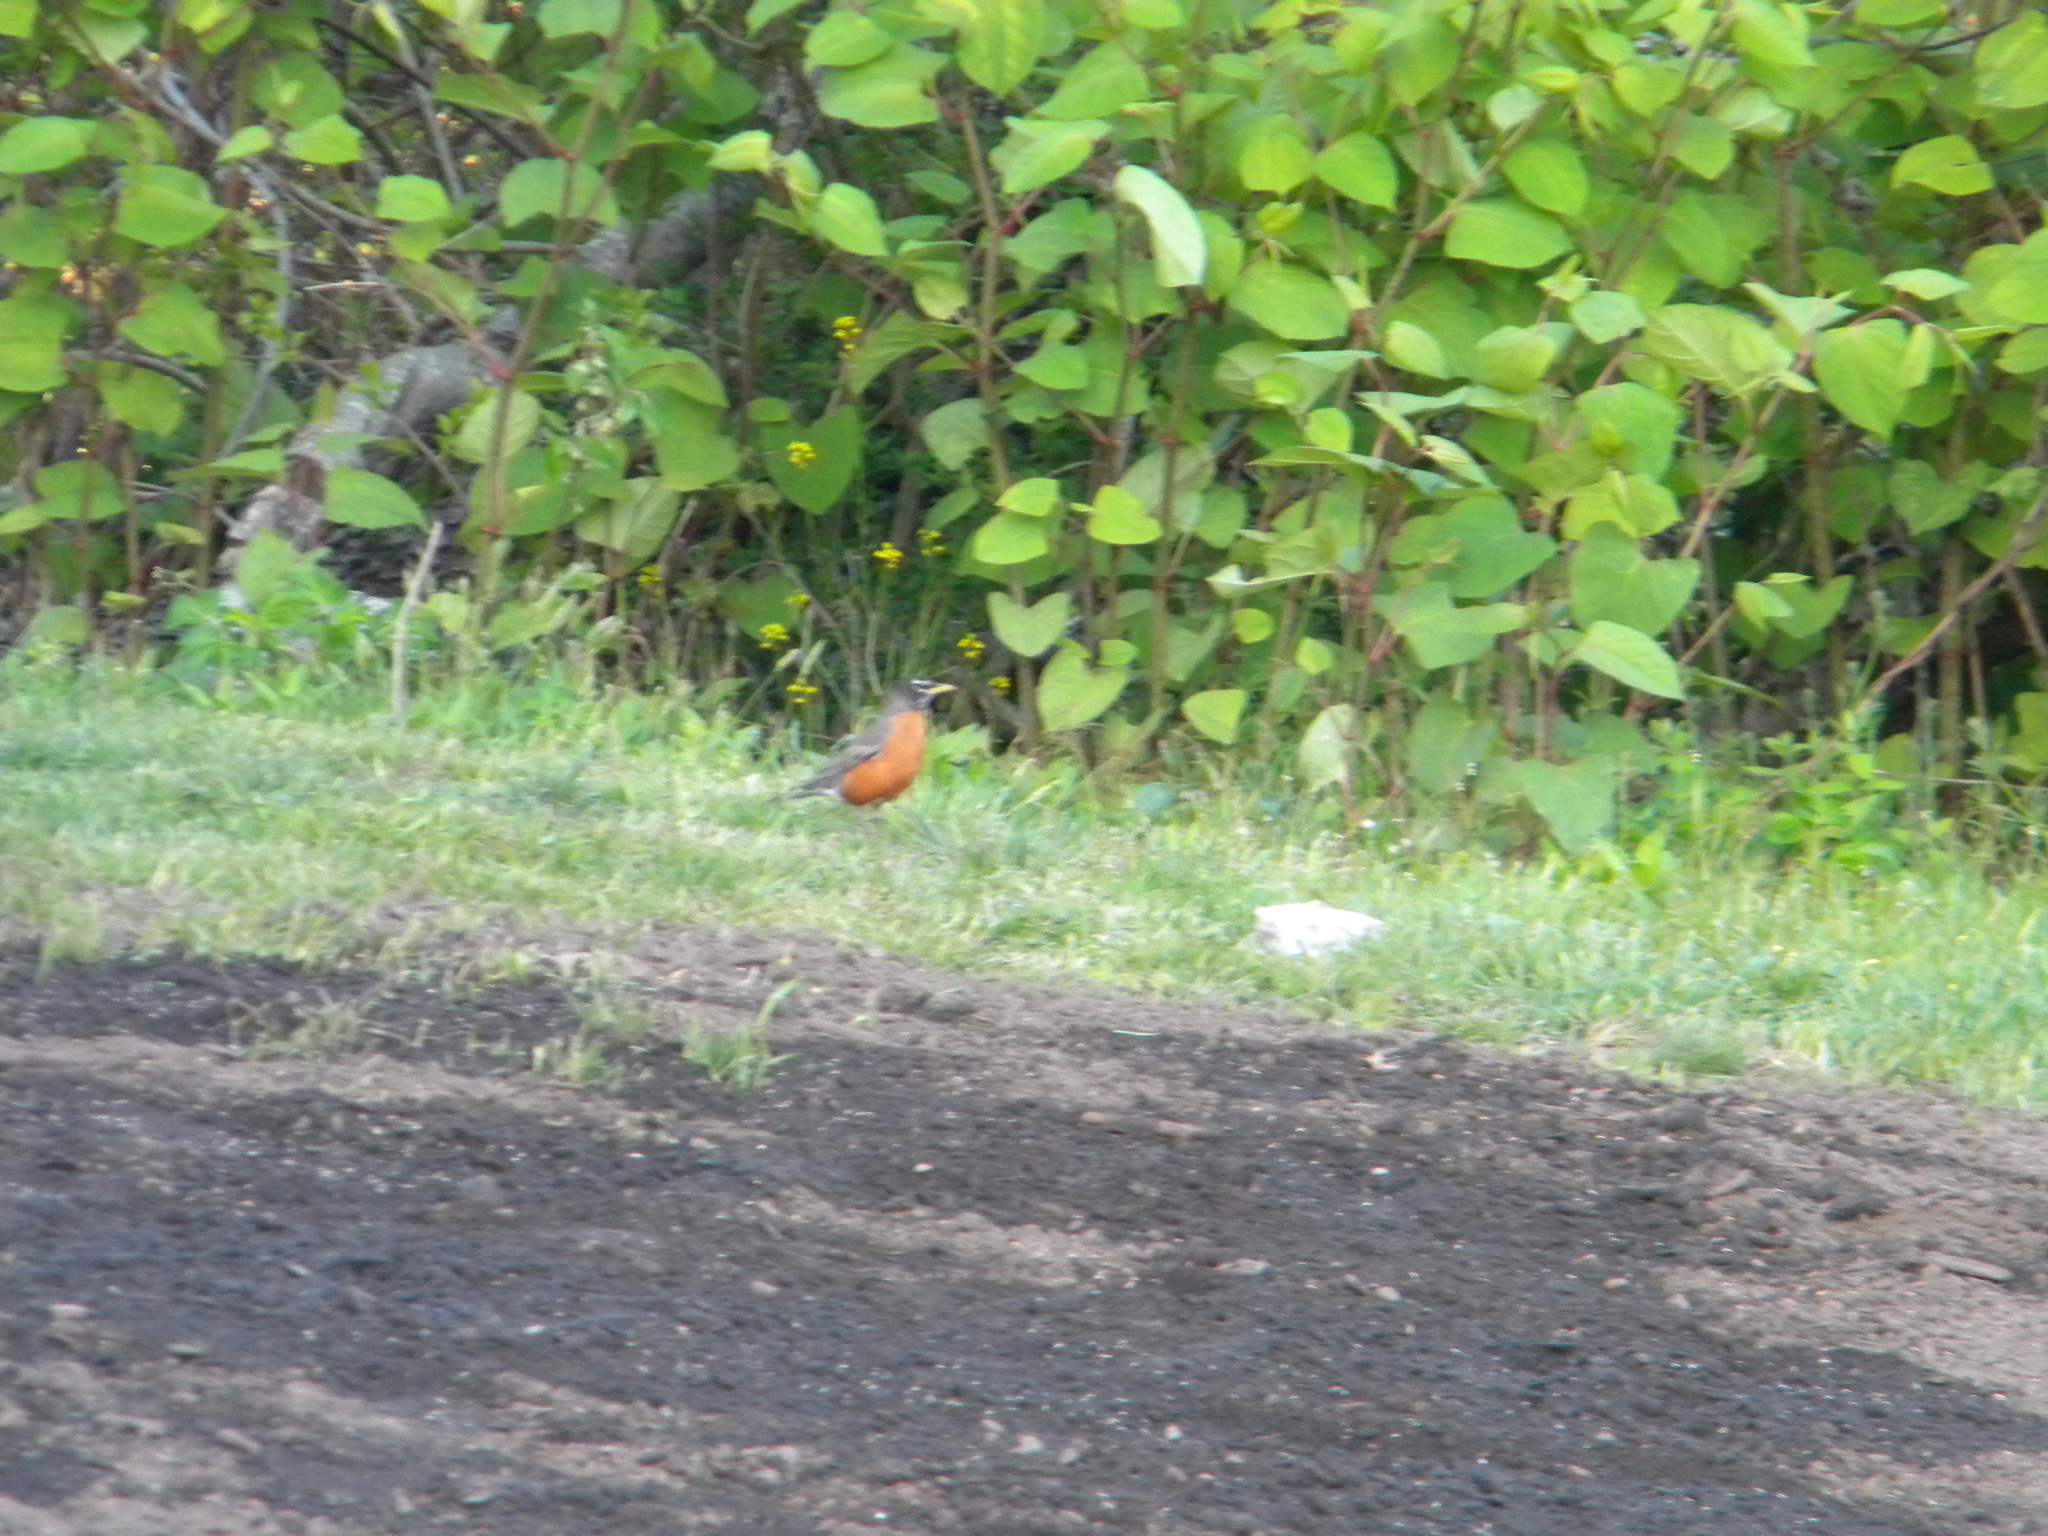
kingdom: Animalia
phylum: Chordata
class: Aves
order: Passeriformes
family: Turdidae
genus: Turdus
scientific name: Turdus migratorius
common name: American robin
